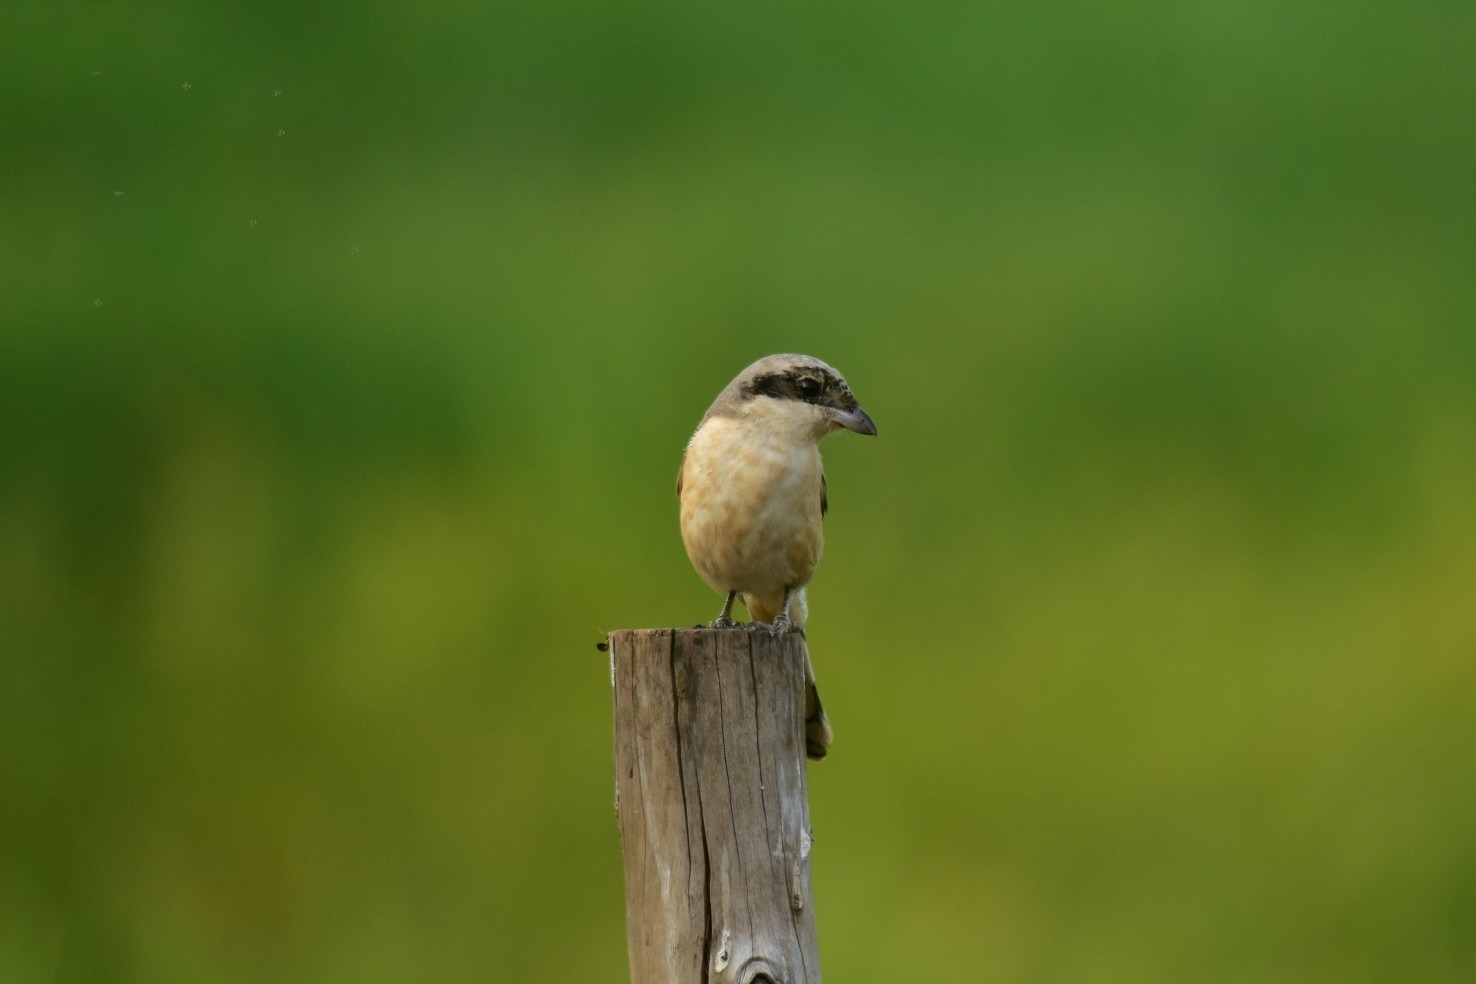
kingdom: Animalia
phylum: Chordata
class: Aves
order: Passeriformes
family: Laniidae
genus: Lanius
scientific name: Lanius vittatus
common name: Bay-backed shrike
